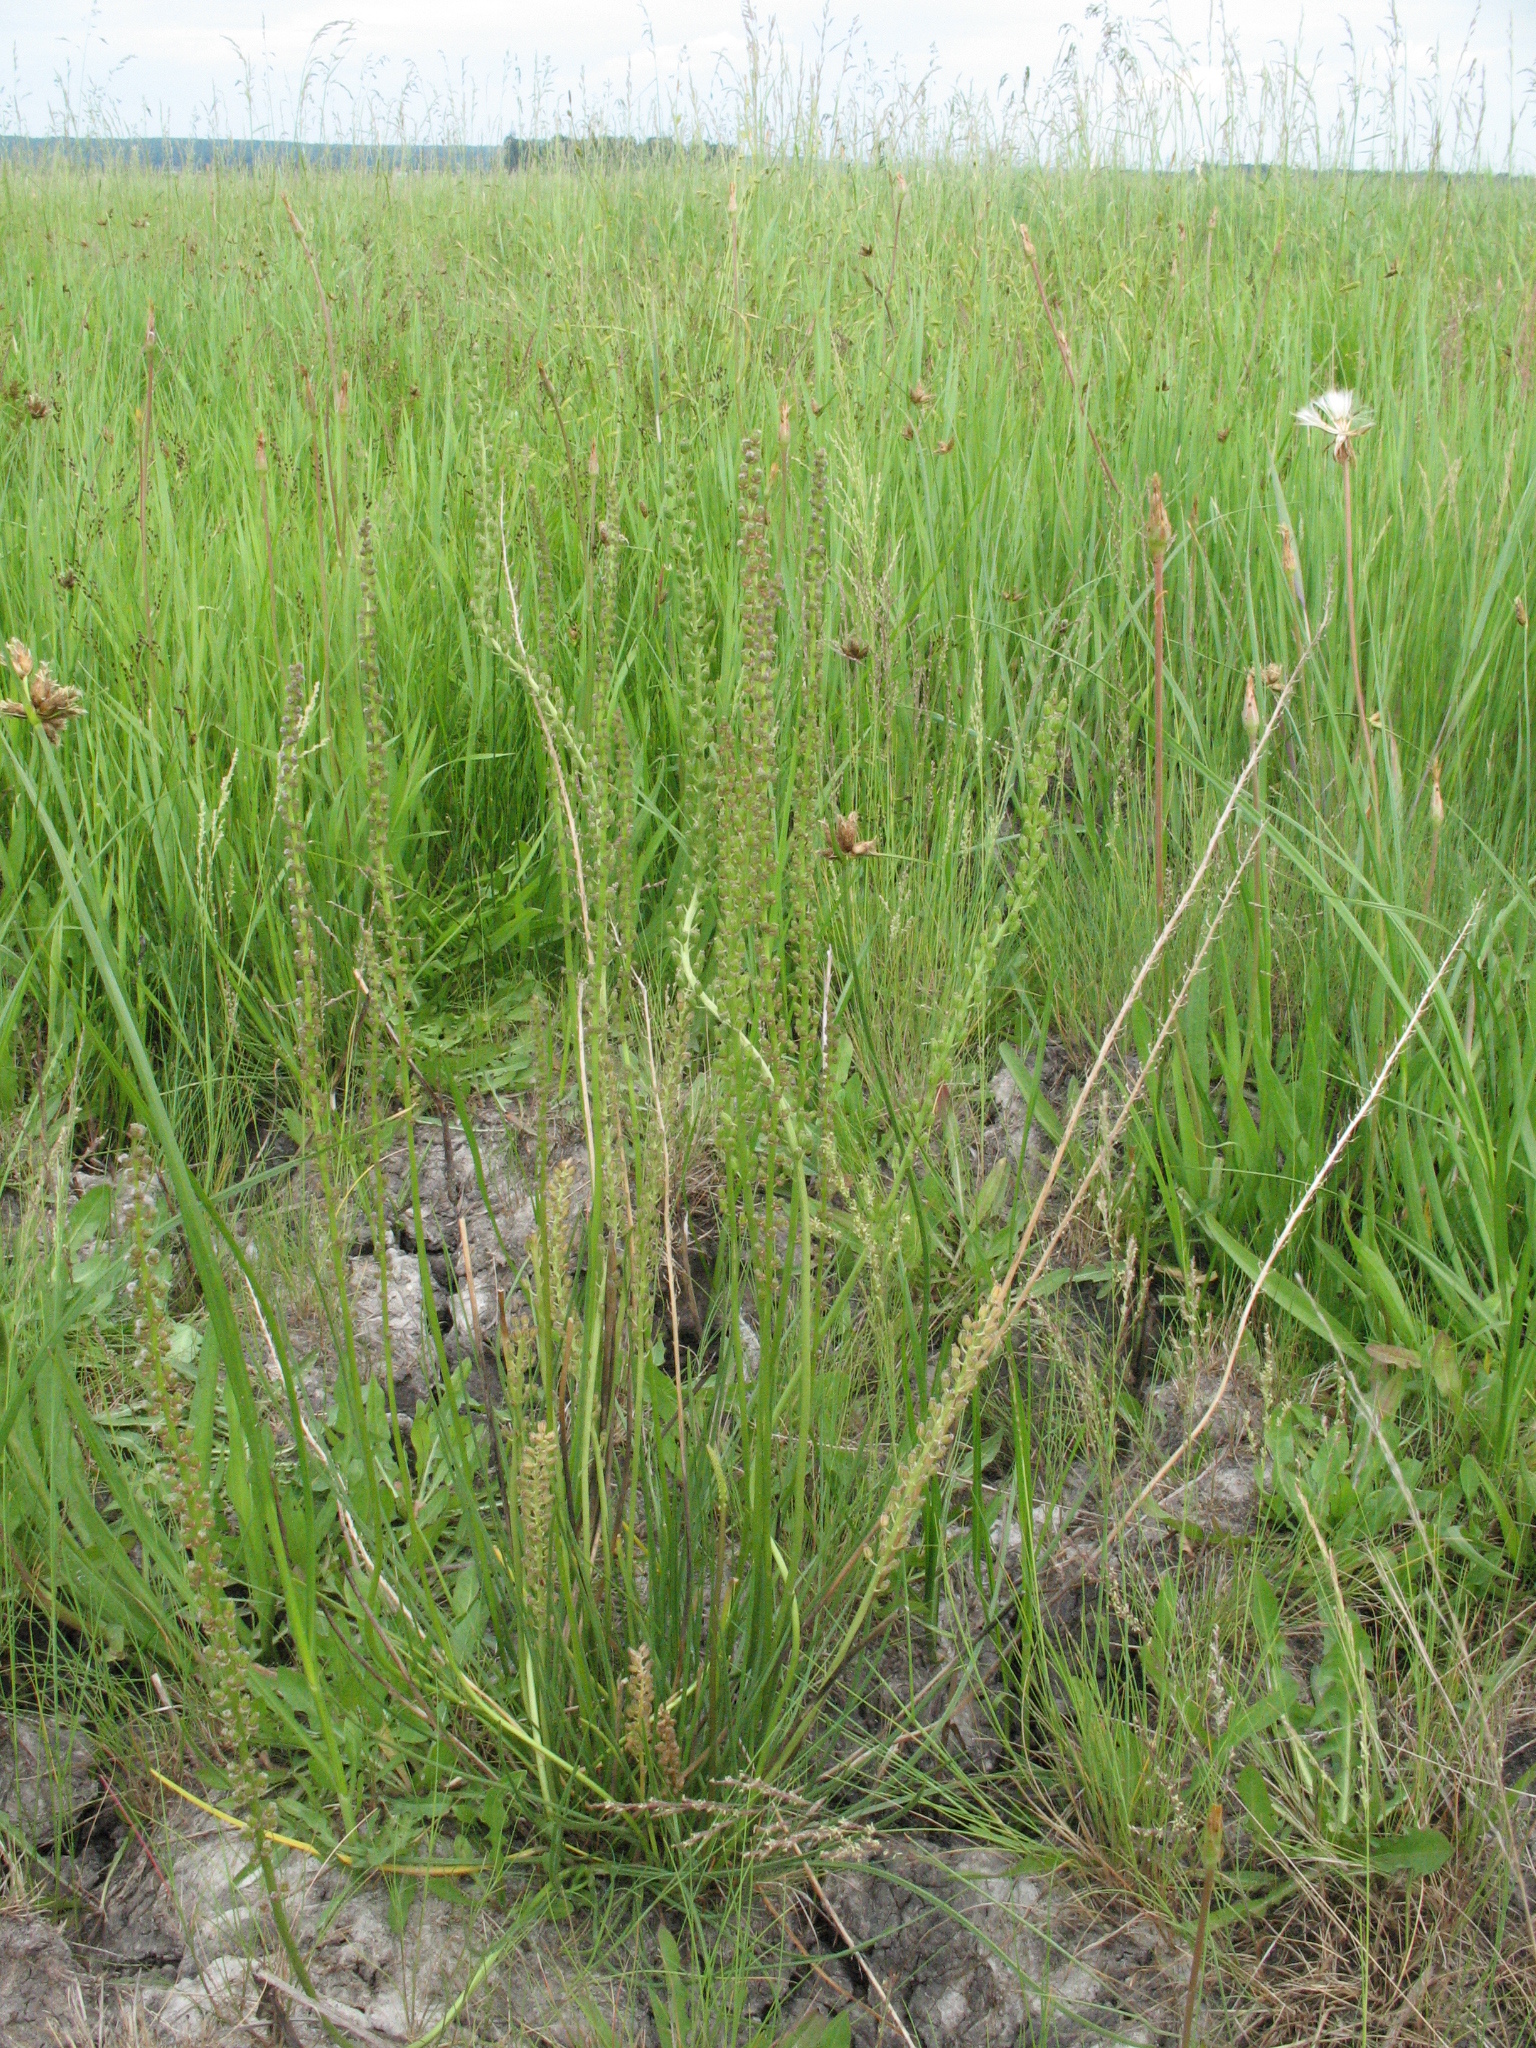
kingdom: Plantae
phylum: Tracheophyta
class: Liliopsida
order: Alismatales
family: Juncaginaceae
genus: Triglochin
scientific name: Triglochin maritima
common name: Sea arrowgrass
